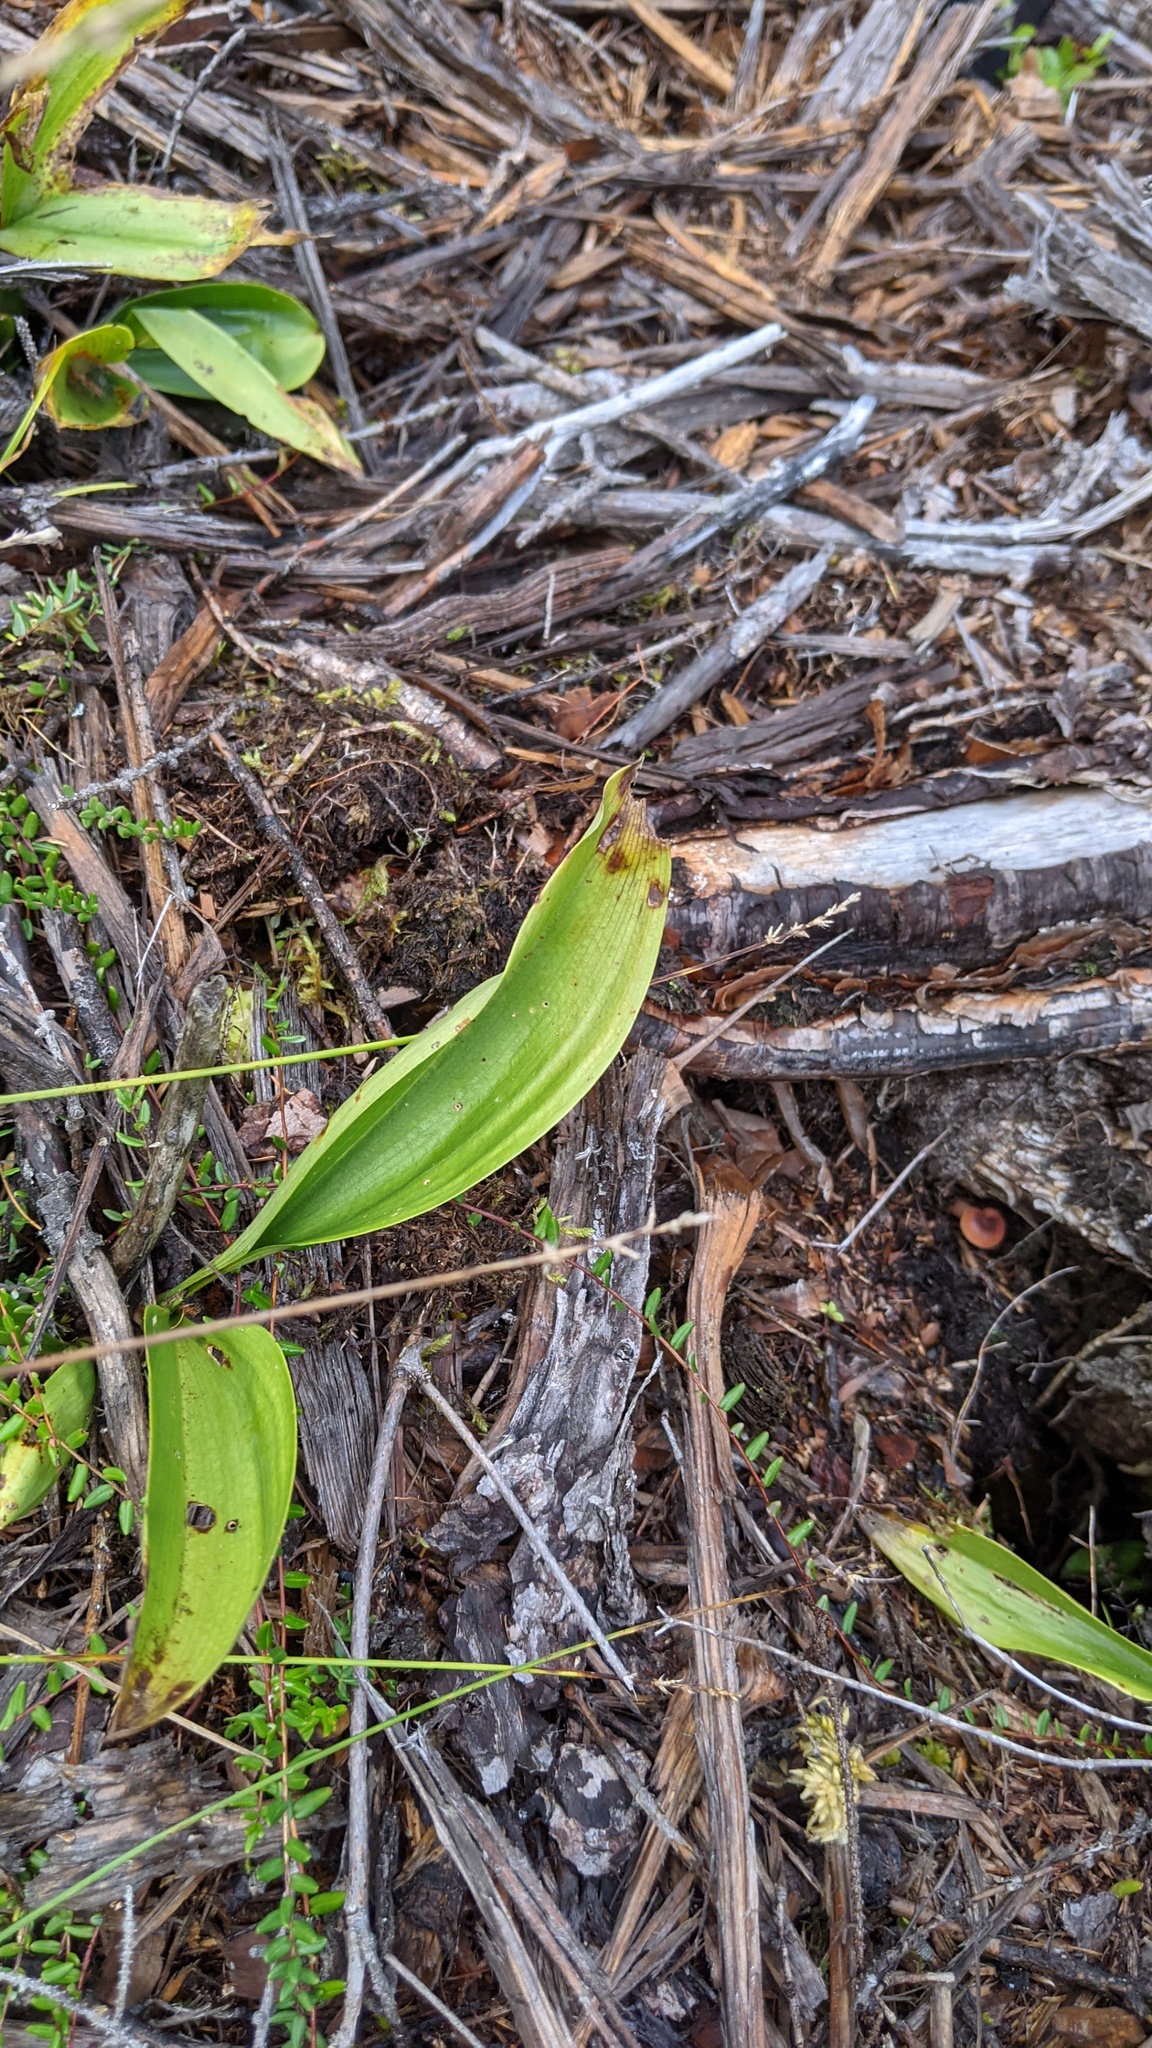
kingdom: Plantae
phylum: Tracheophyta
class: Liliopsida
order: Asparagales
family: Asparagaceae
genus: Maianthemum
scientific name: Maianthemum trifolium
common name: Swamp false solomon's seal
